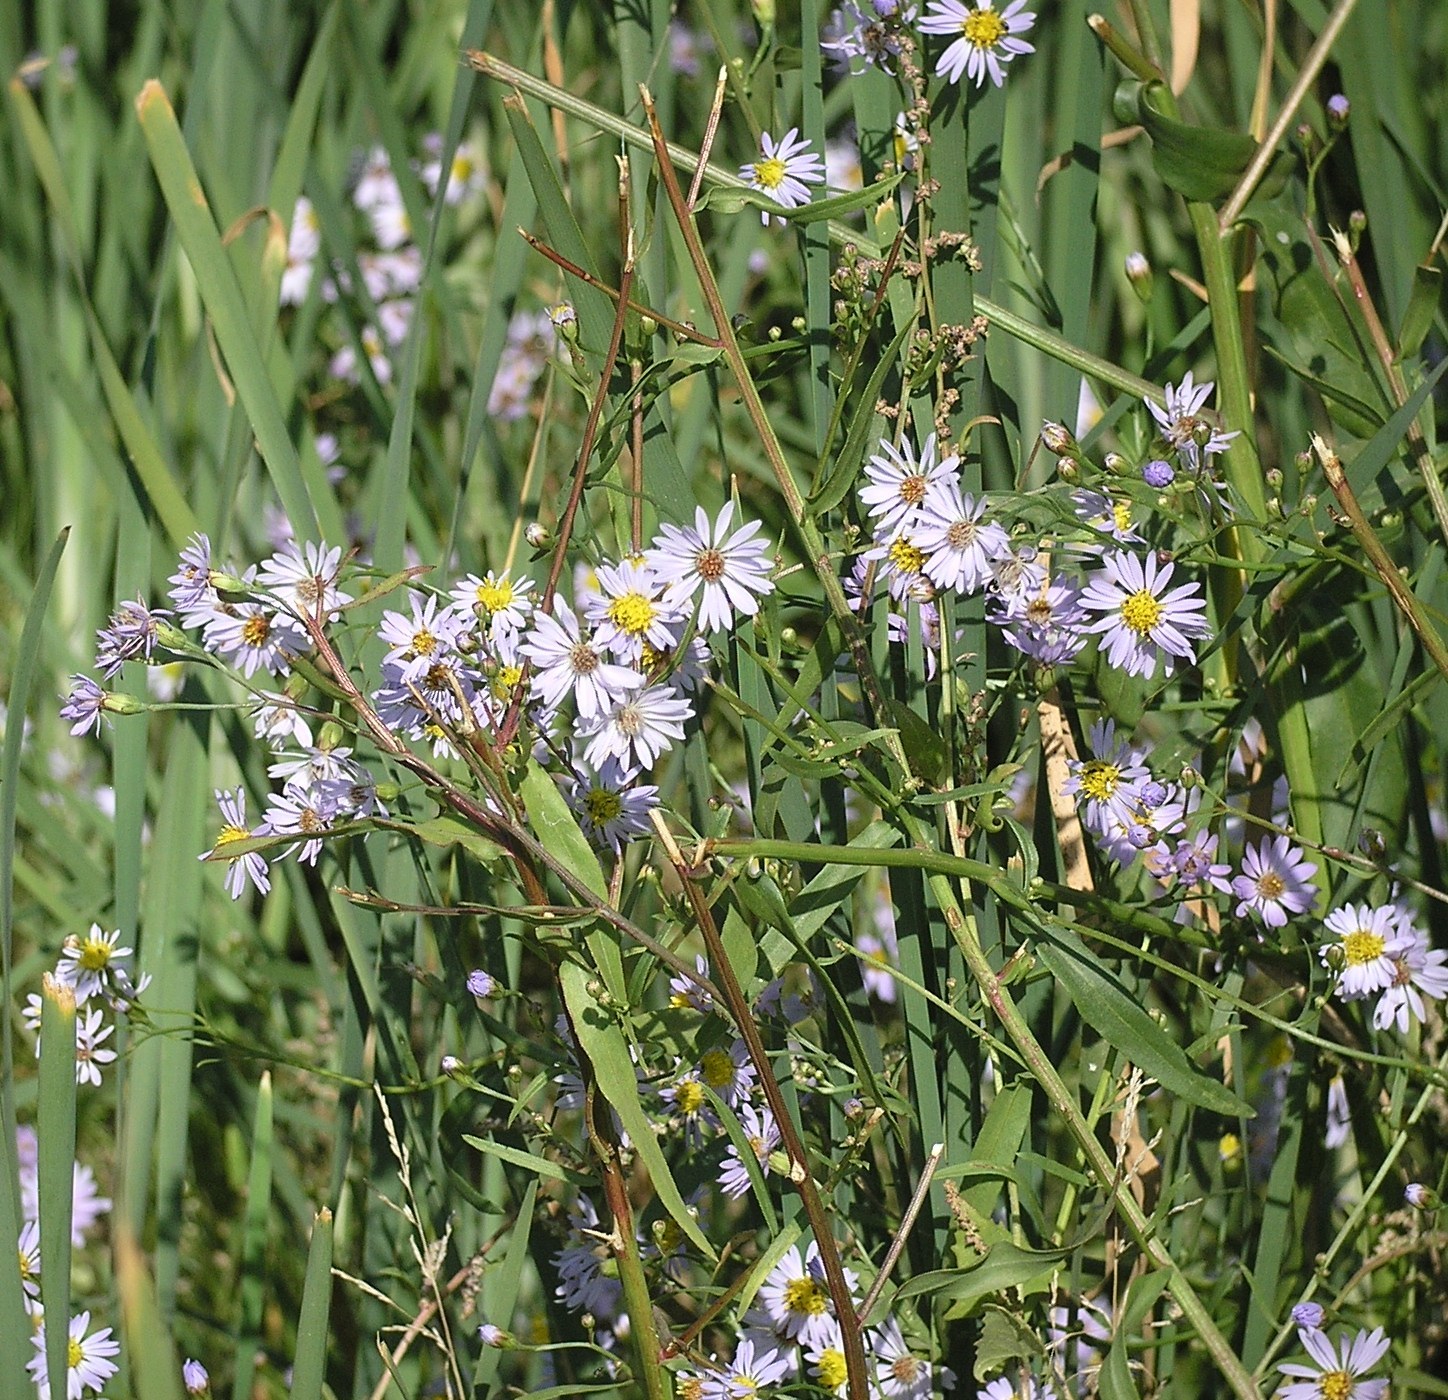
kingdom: Plantae
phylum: Tracheophyta
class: Magnoliopsida
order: Asterales
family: Asteraceae
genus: Tripolium
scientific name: Tripolium pannonicum
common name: Sea aster
